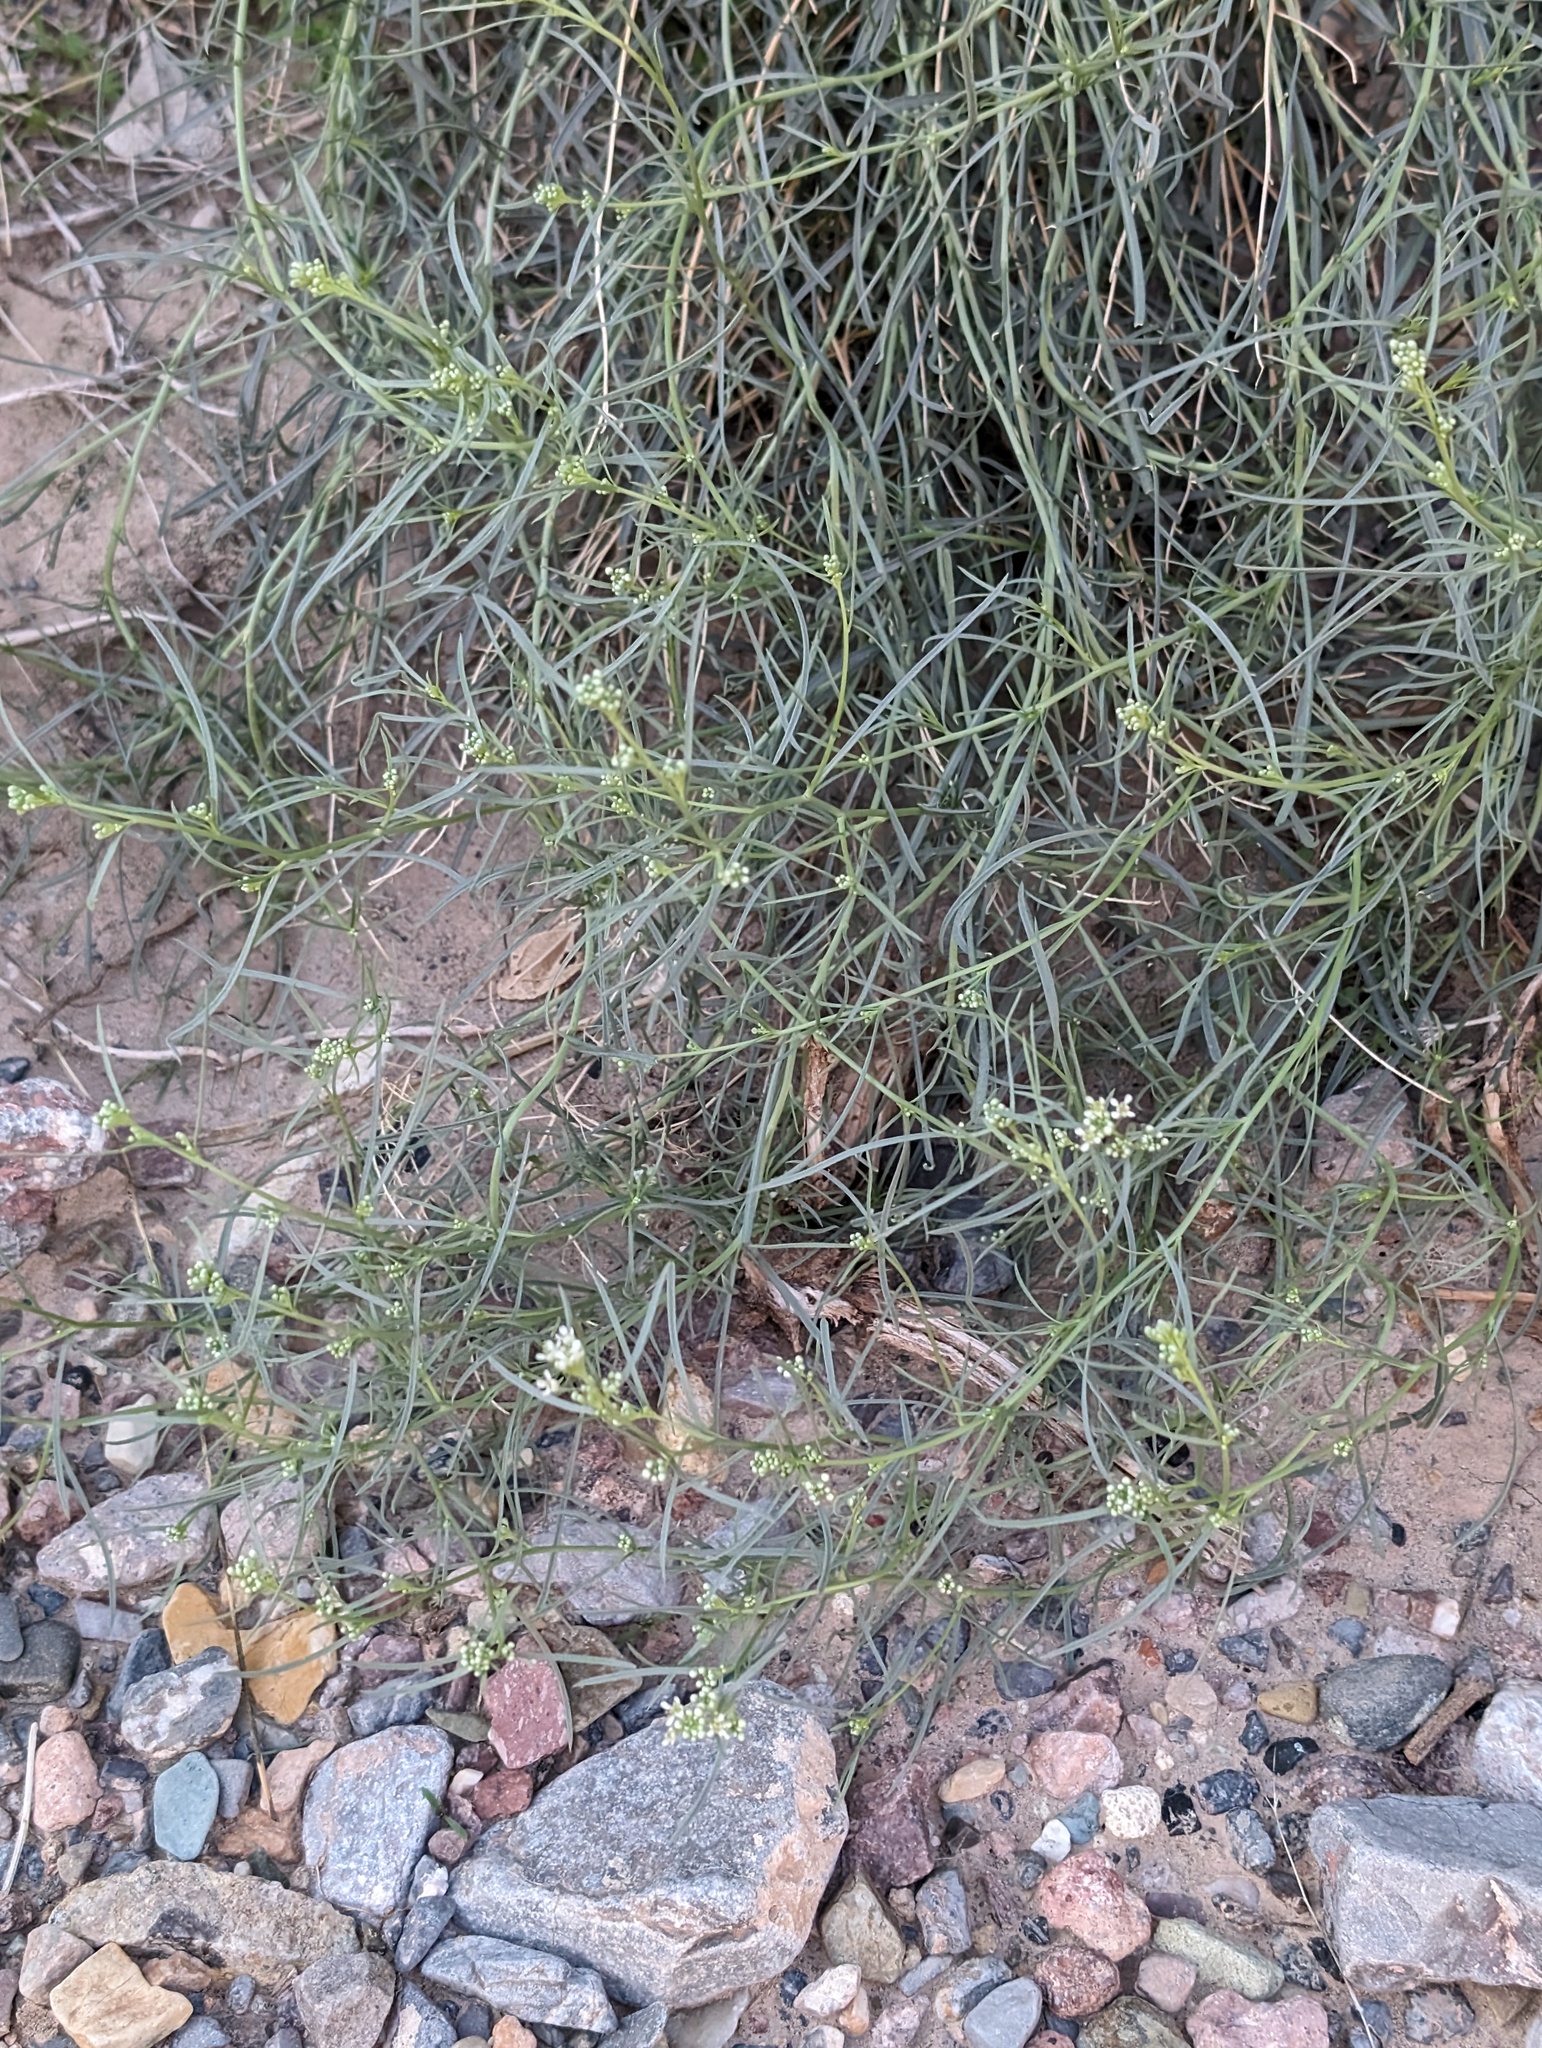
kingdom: Plantae
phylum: Tracheophyta
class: Magnoliopsida
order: Brassicales
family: Brassicaceae
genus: Lepidium
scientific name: Lepidium fremontii
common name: Fremont's pepperwort
